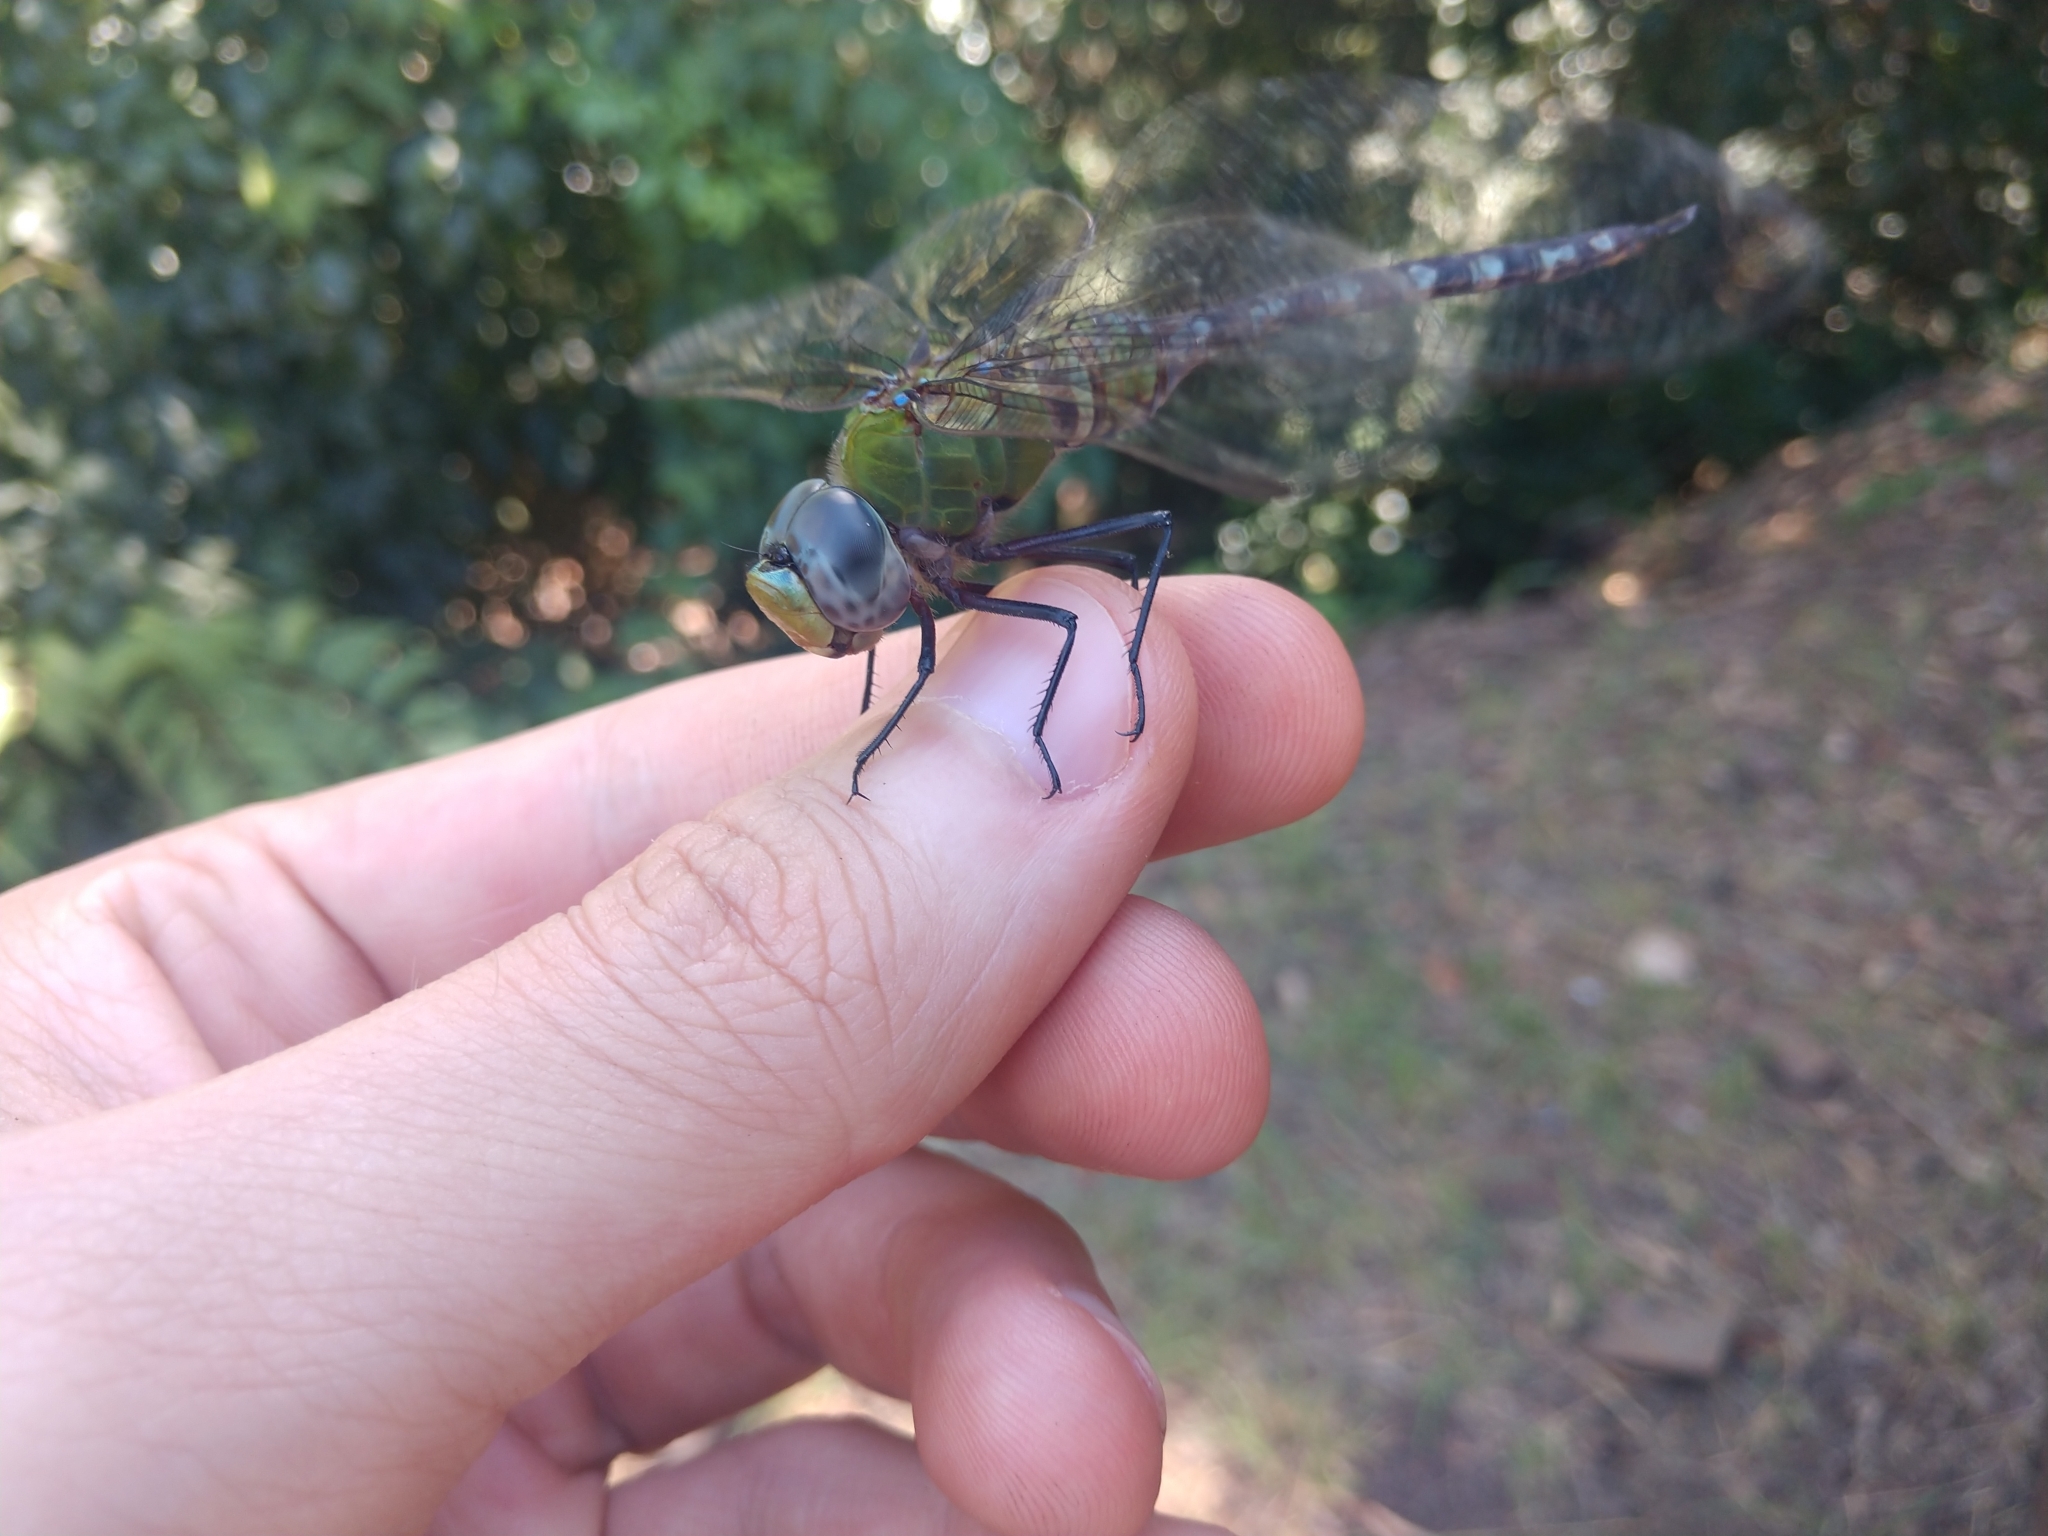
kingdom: Animalia
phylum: Arthropoda
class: Insecta
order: Odonata
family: Aeshnidae
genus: Anax
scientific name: Anax amazili
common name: Amazon darner
